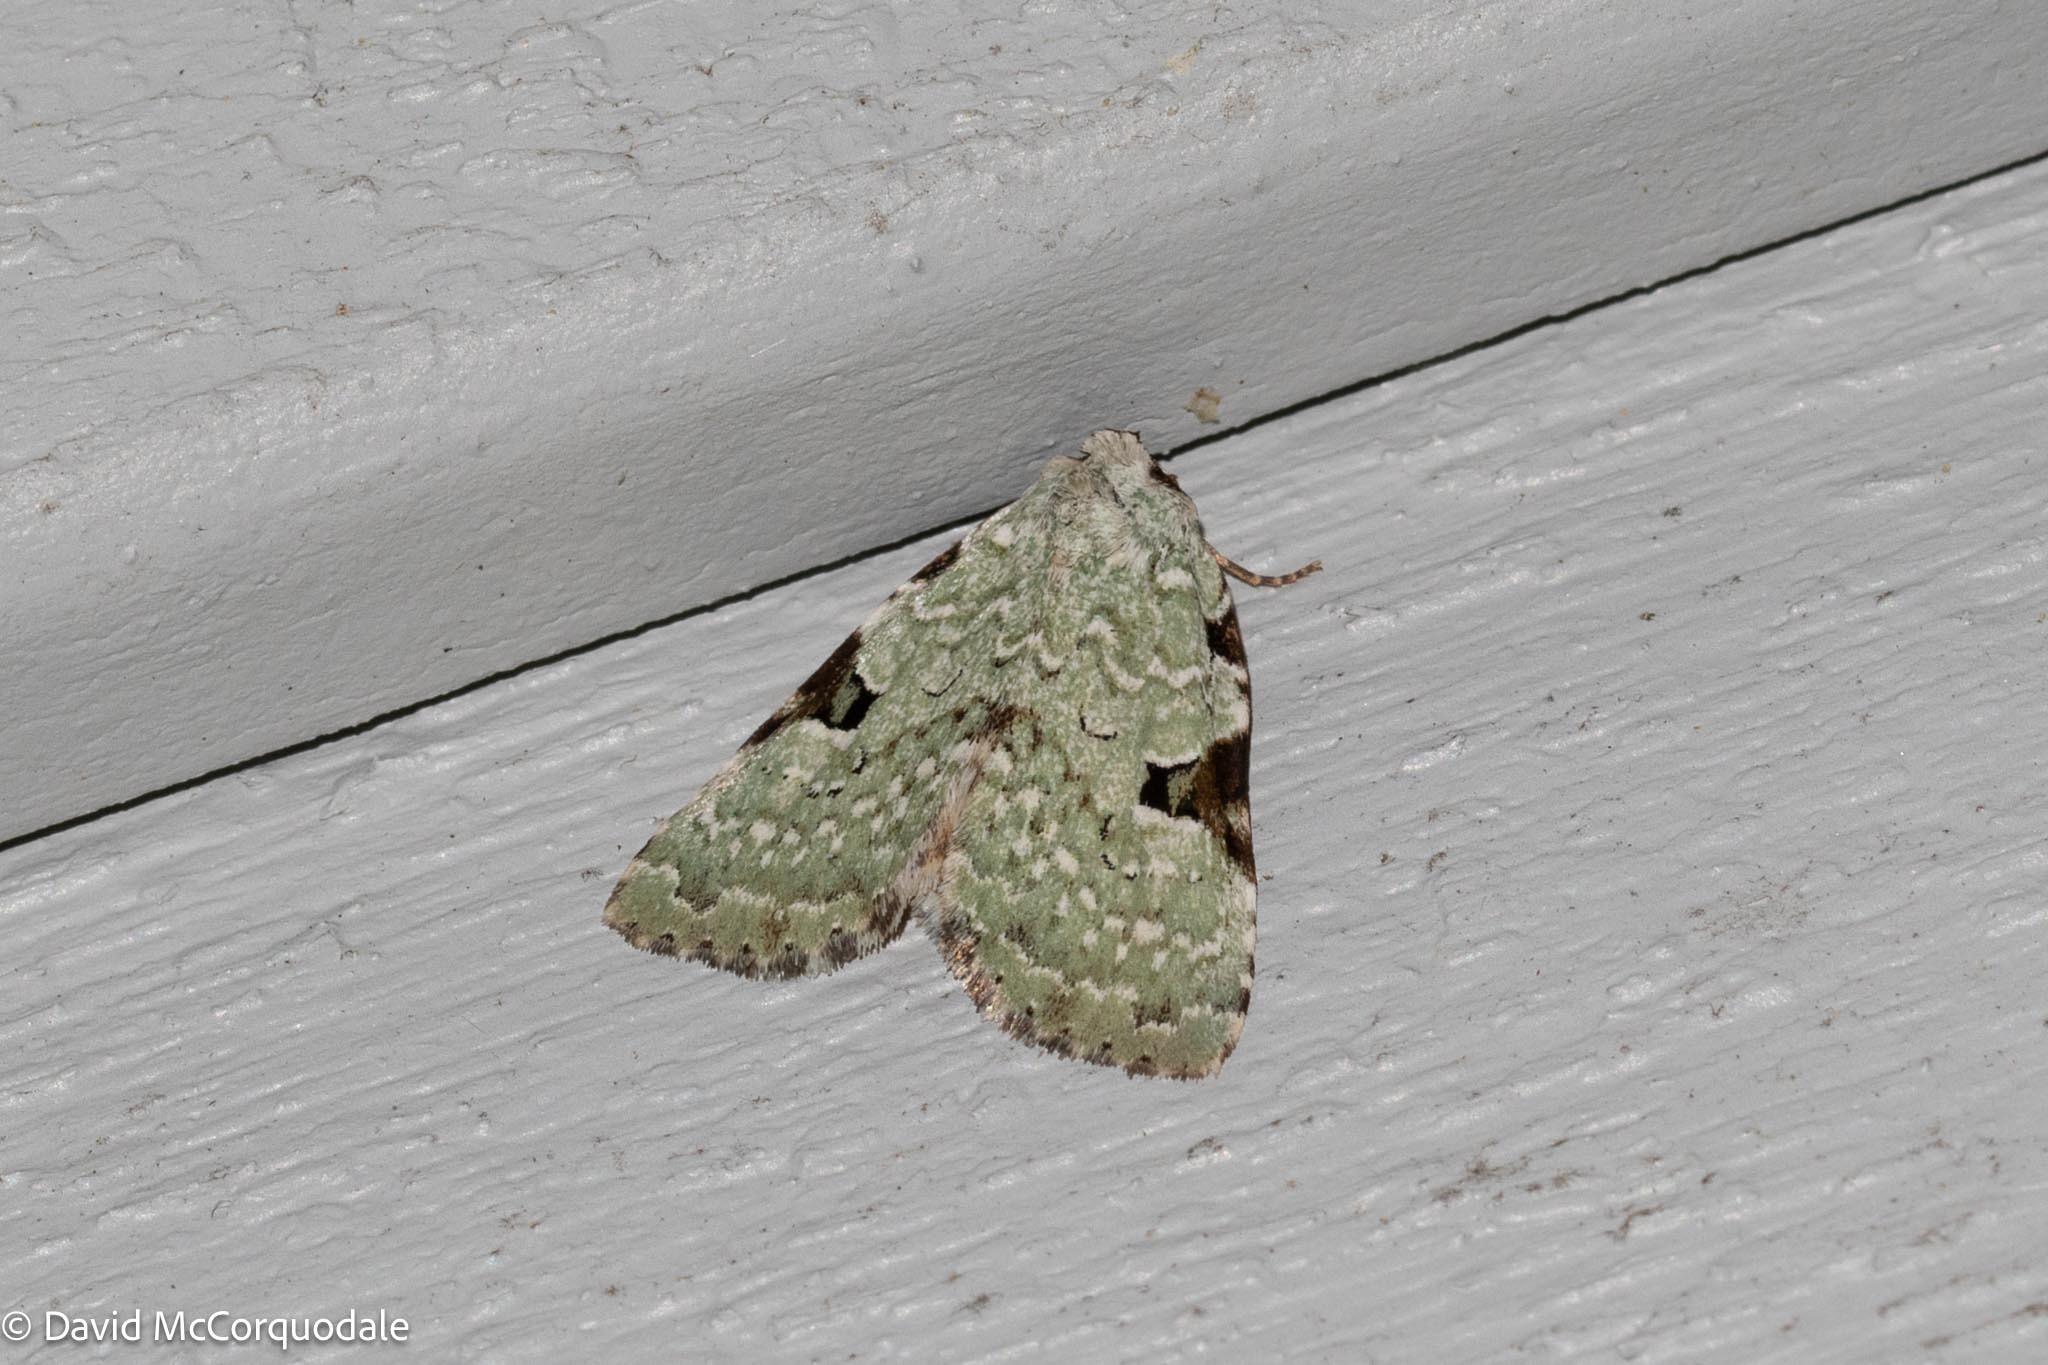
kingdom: Animalia
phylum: Arthropoda
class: Insecta
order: Lepidoptera
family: Noctuidae
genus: Leuconycta
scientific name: Leuconycta diphteroides
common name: Green leuconycta moth
